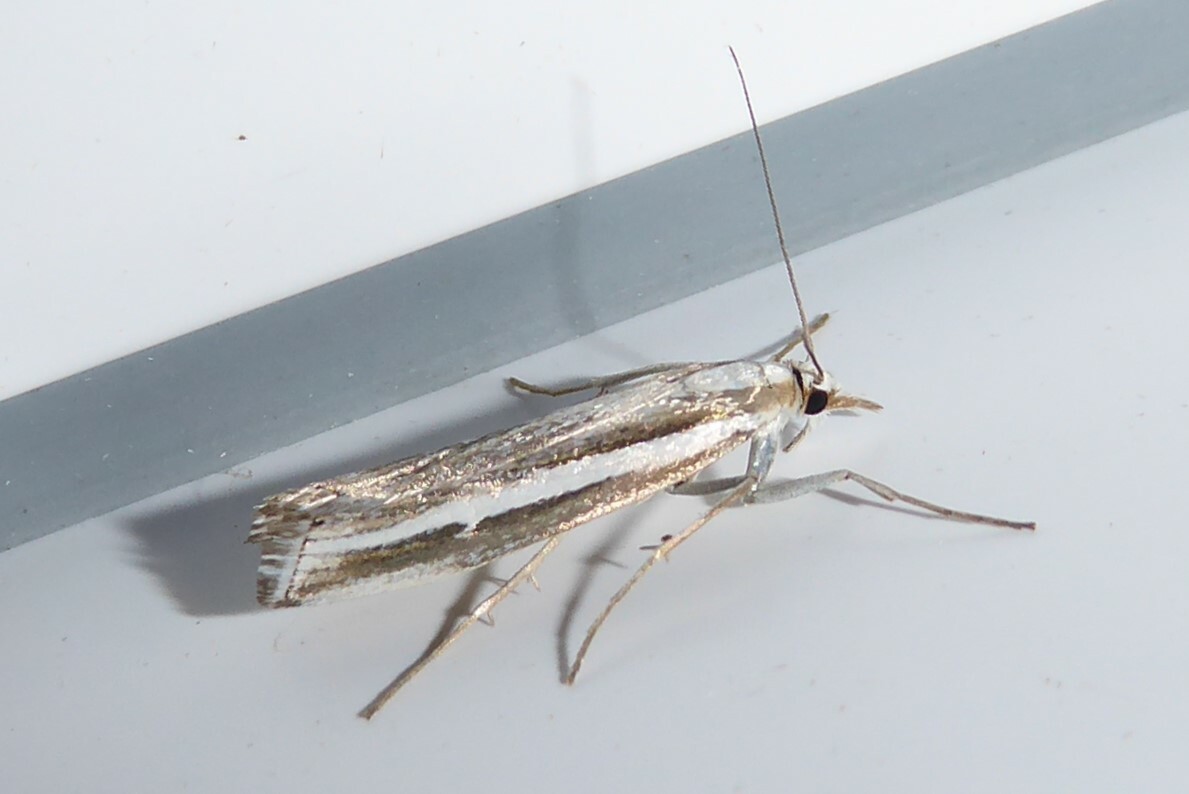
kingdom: Animalia
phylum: Arthropoda
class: Insecta
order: Lepidoptera
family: Crambidae
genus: Orocrambus
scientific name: Orocrambus vittellus
